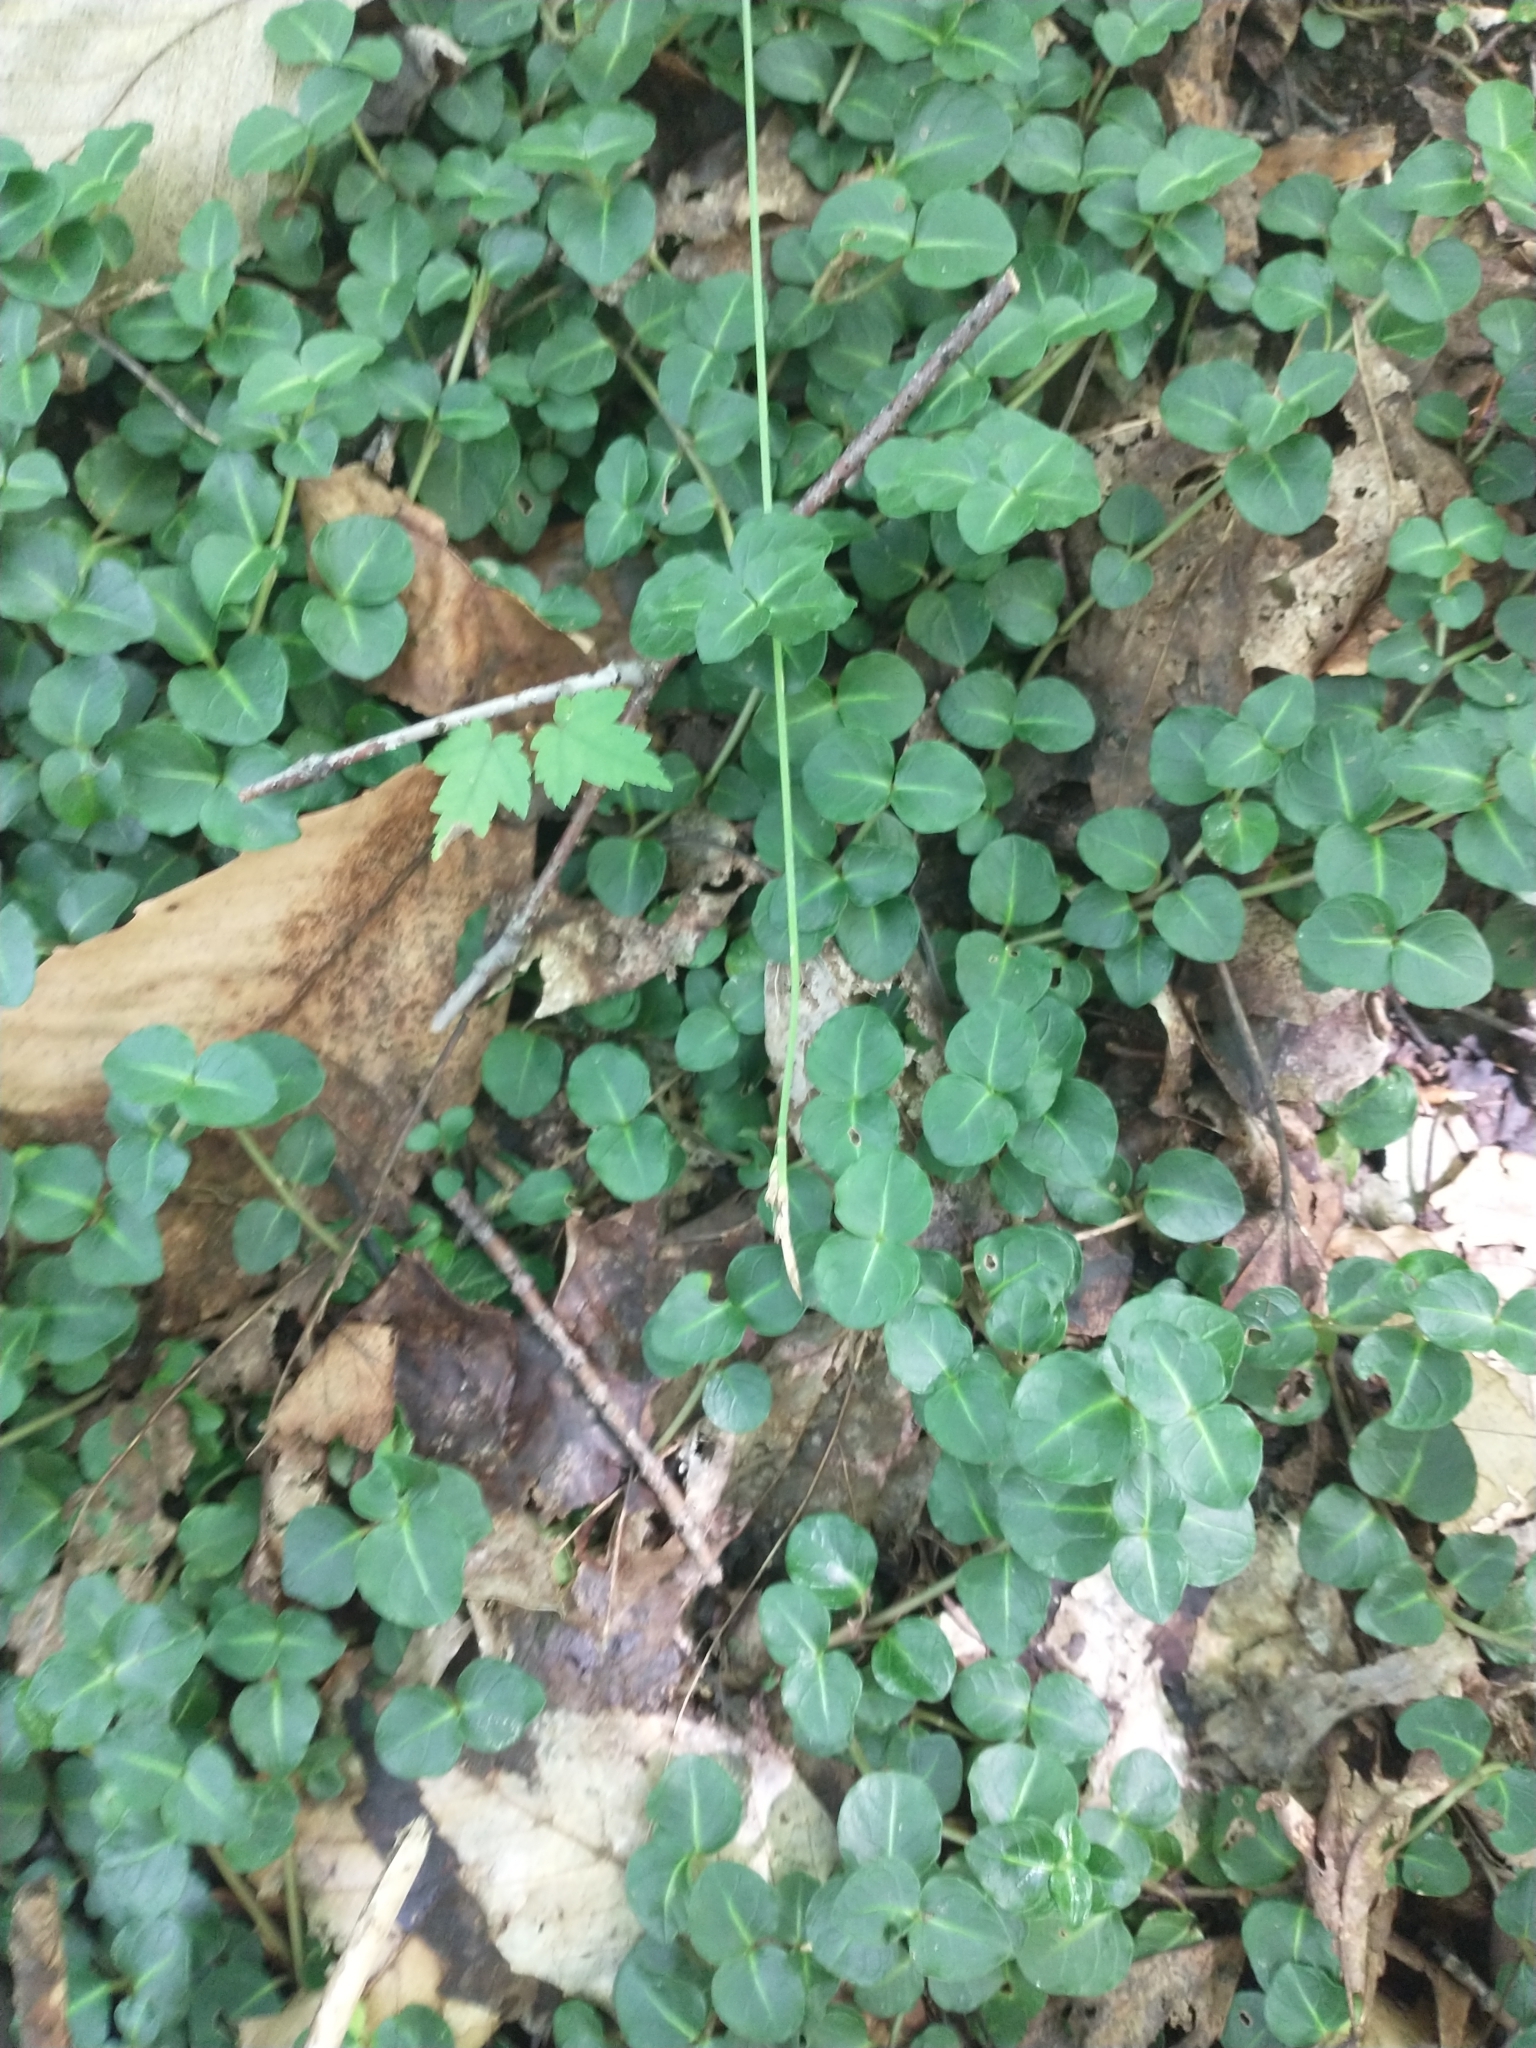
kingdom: Plantae
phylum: Tracheophyta
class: Magnoliopsida
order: Gentianales
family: Rubiaceae
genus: Mitchella
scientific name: Mitchella repens
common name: Partridge-berry
